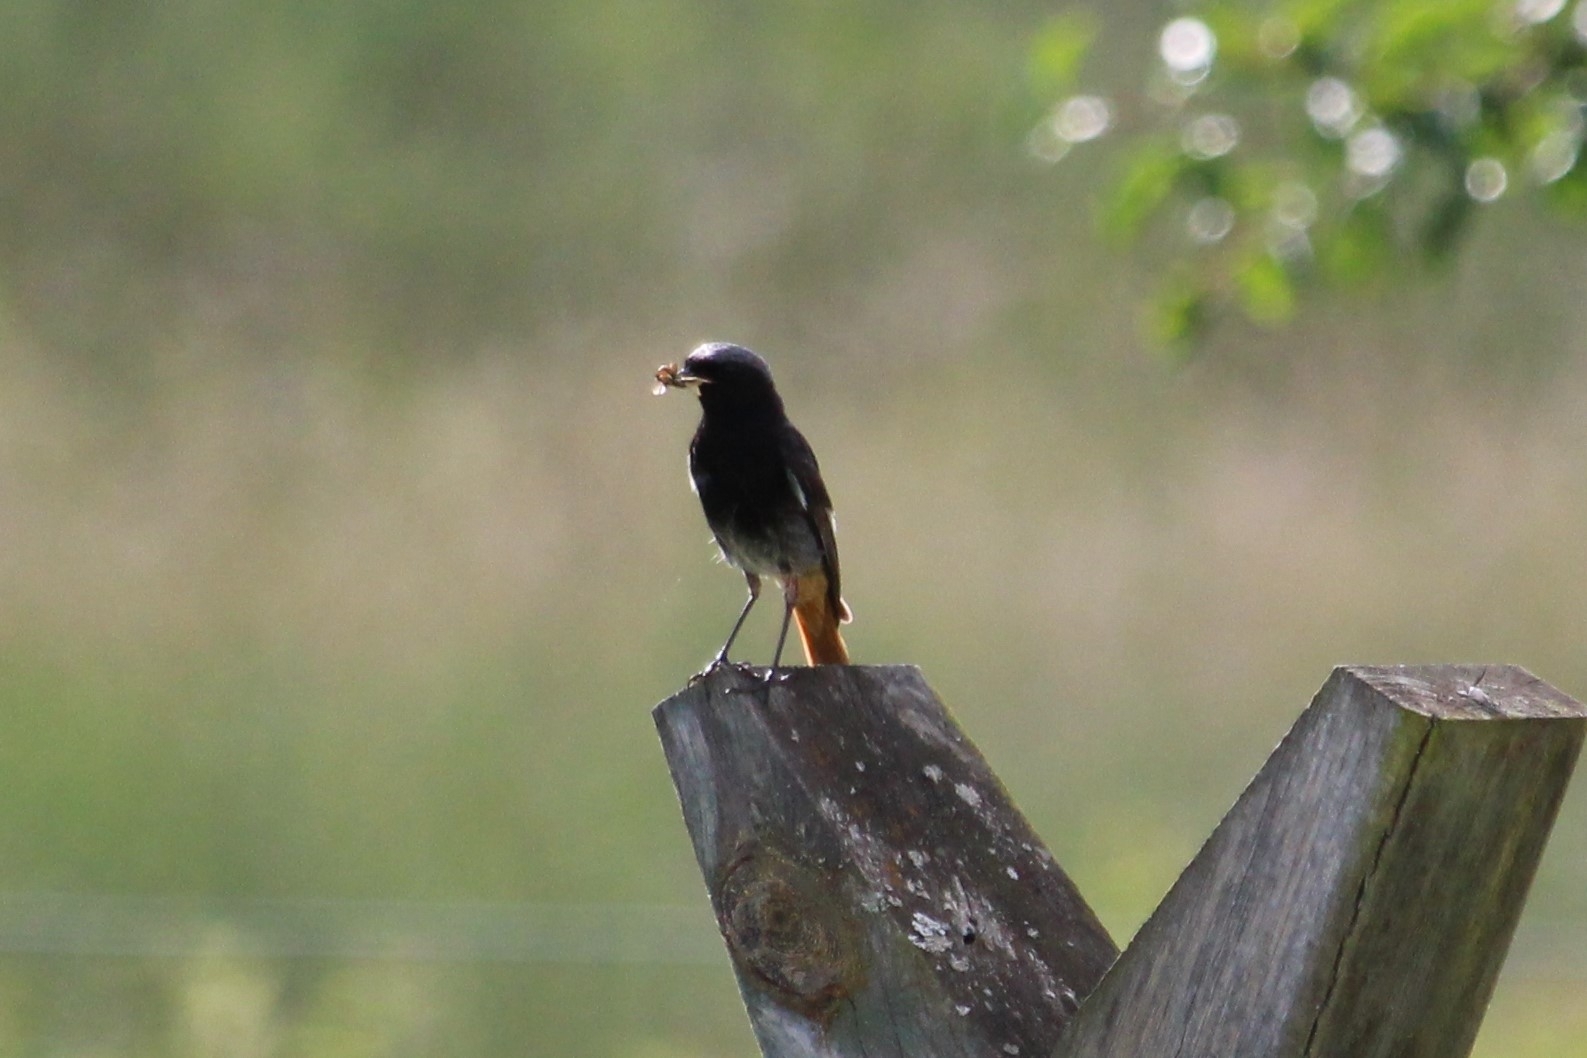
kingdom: Animalia
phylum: Chordata
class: Aves
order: Passeriformes
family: Muscicapidae
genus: Phoenicurus
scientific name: Phoenicurus ochruros
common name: Black redstart
